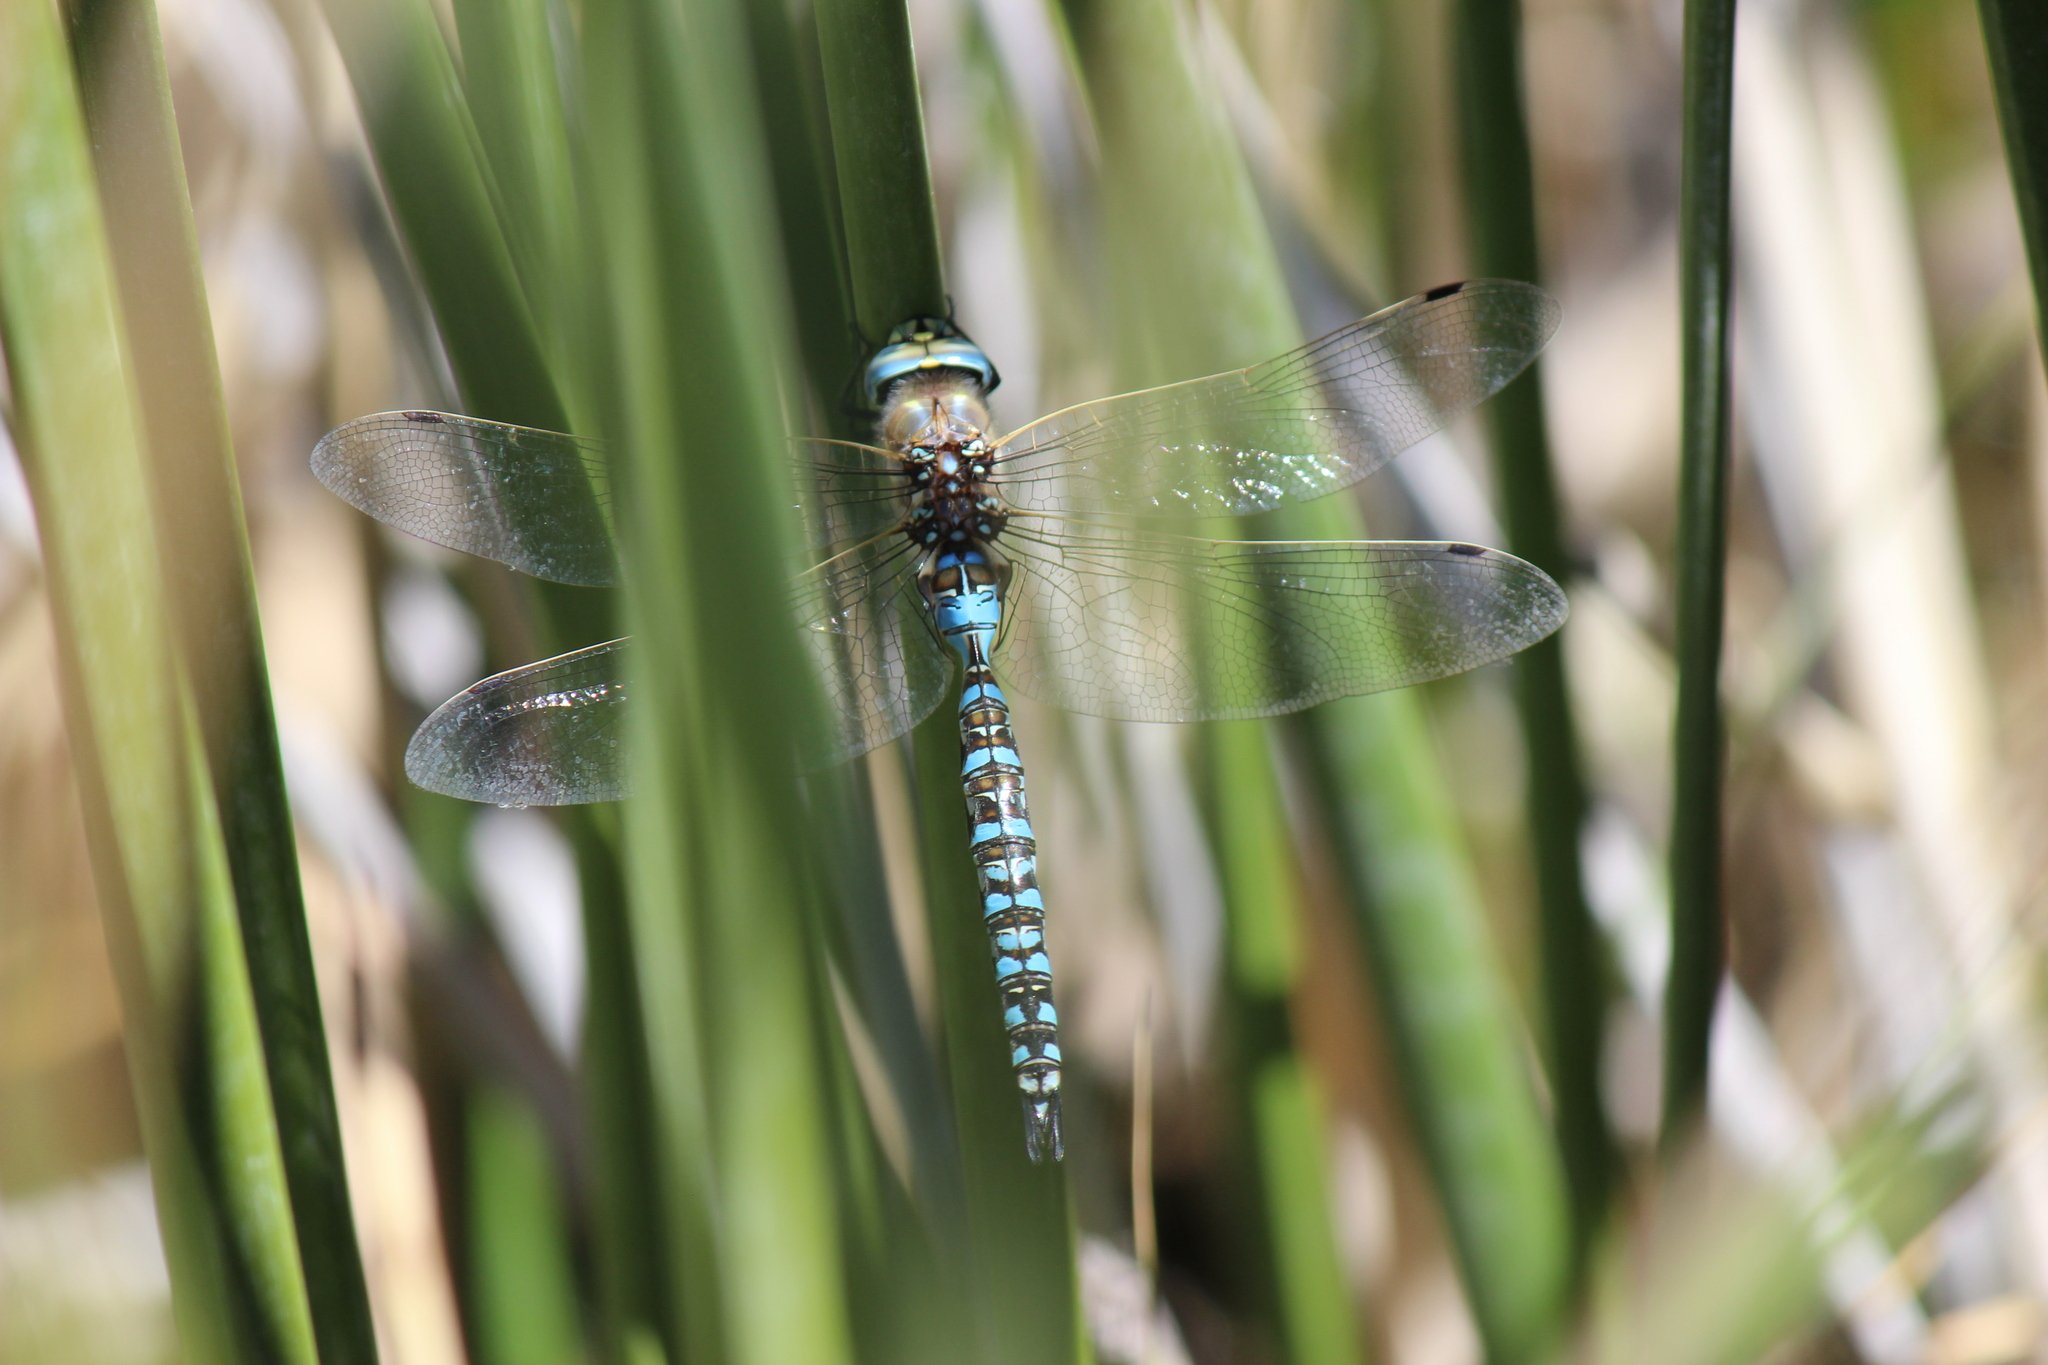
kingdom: Animalia
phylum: Arthropoda
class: Insecta
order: Odonata
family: Aeshnidae
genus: Rhionaeschna
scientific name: Rhionaeschna variegata
